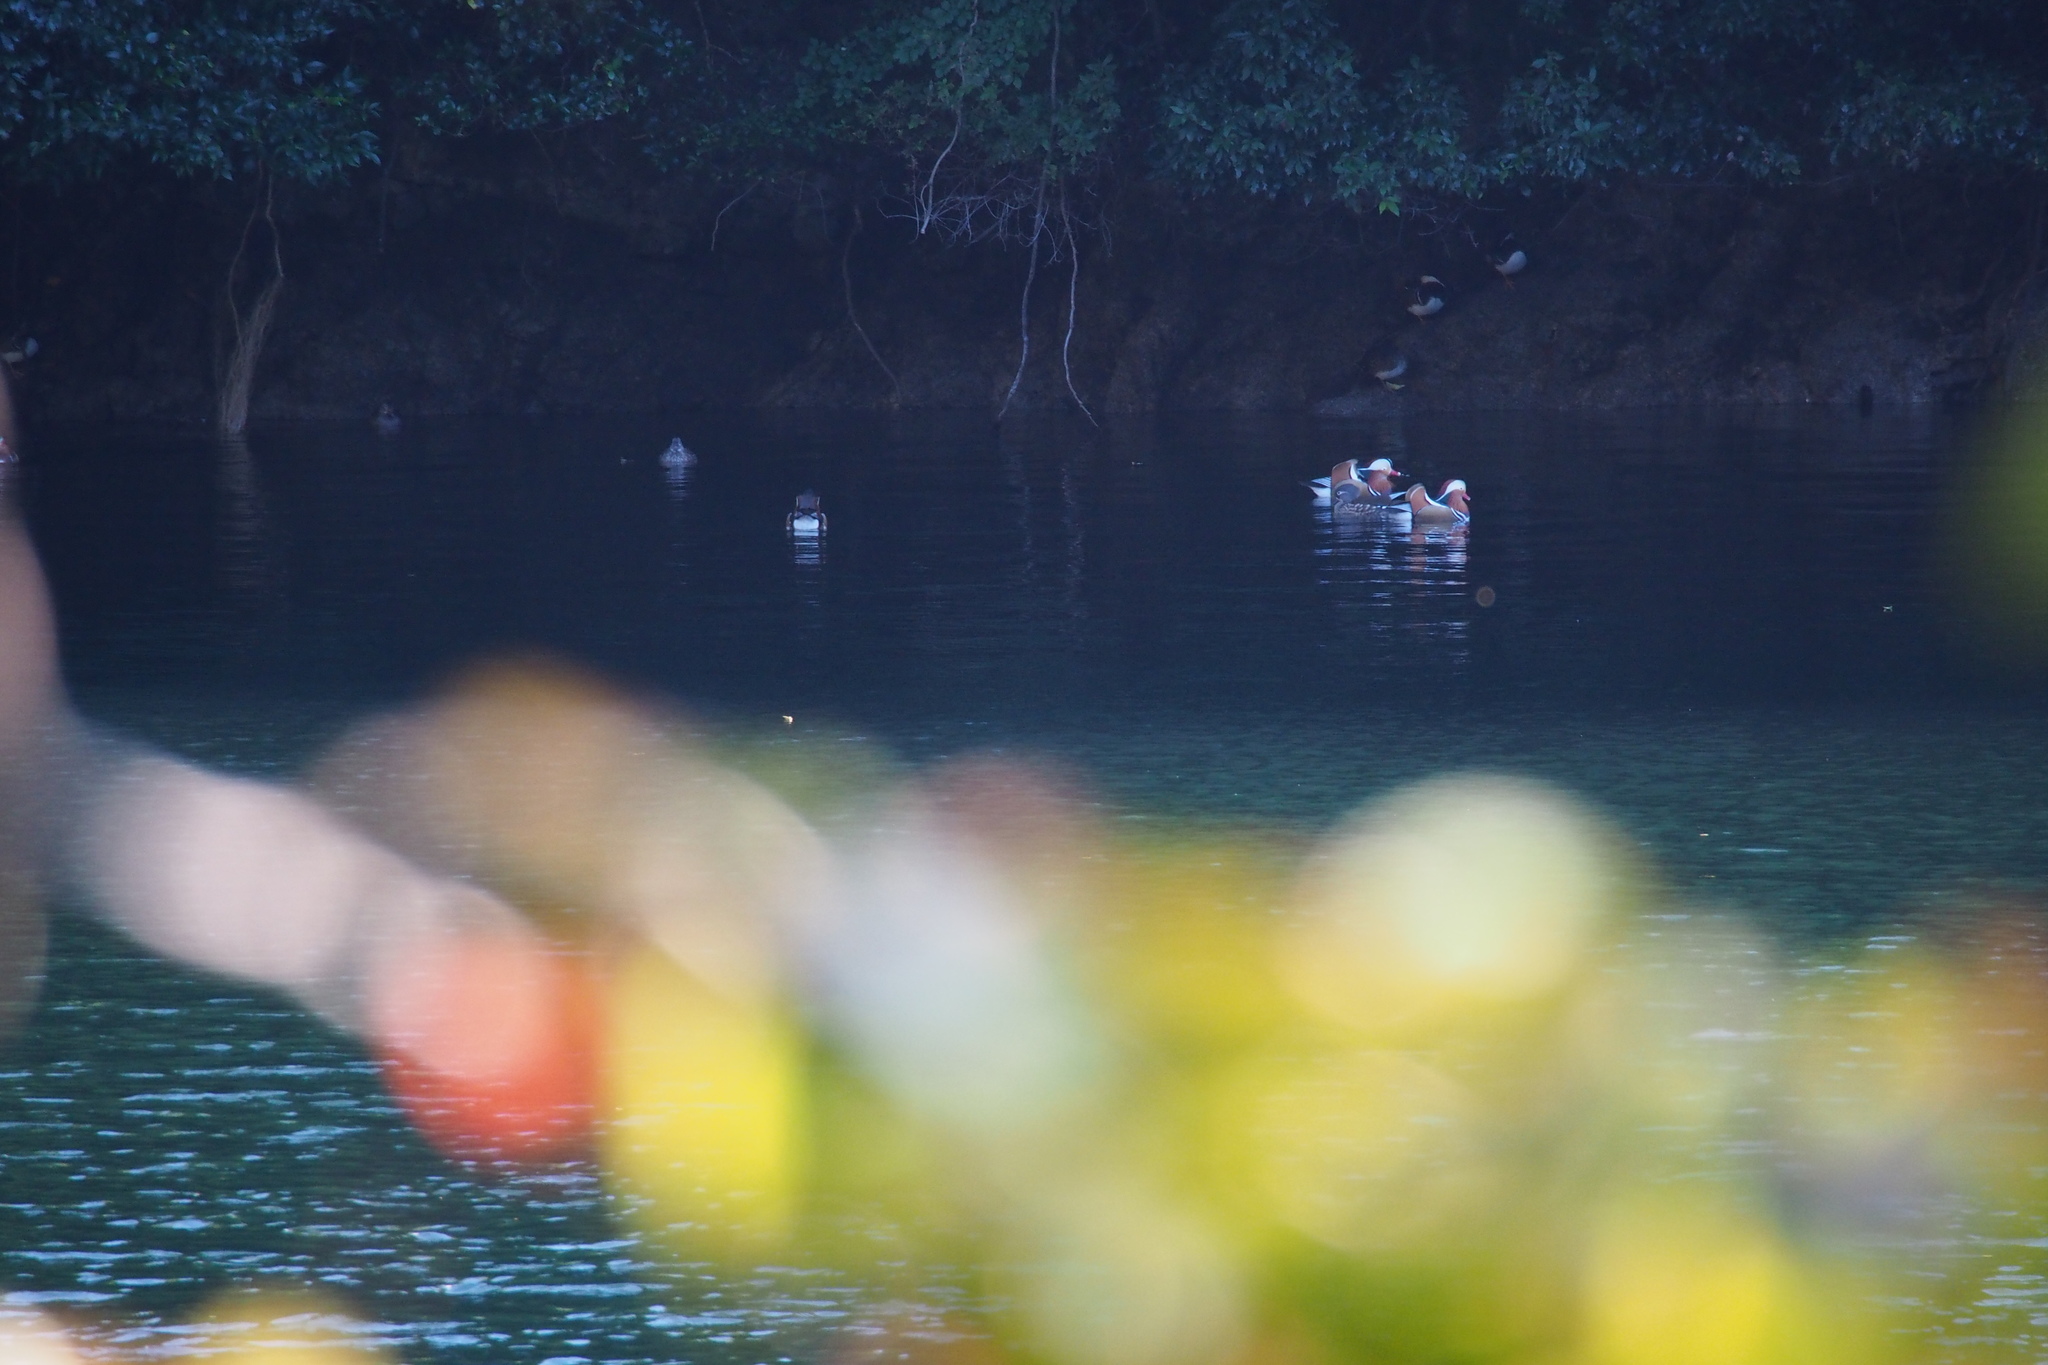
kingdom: Animalia
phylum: Chordata
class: Aves
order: Anseriformes
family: Anatidae
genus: Aix
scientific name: Aix galericulata
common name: Mandarin duck
